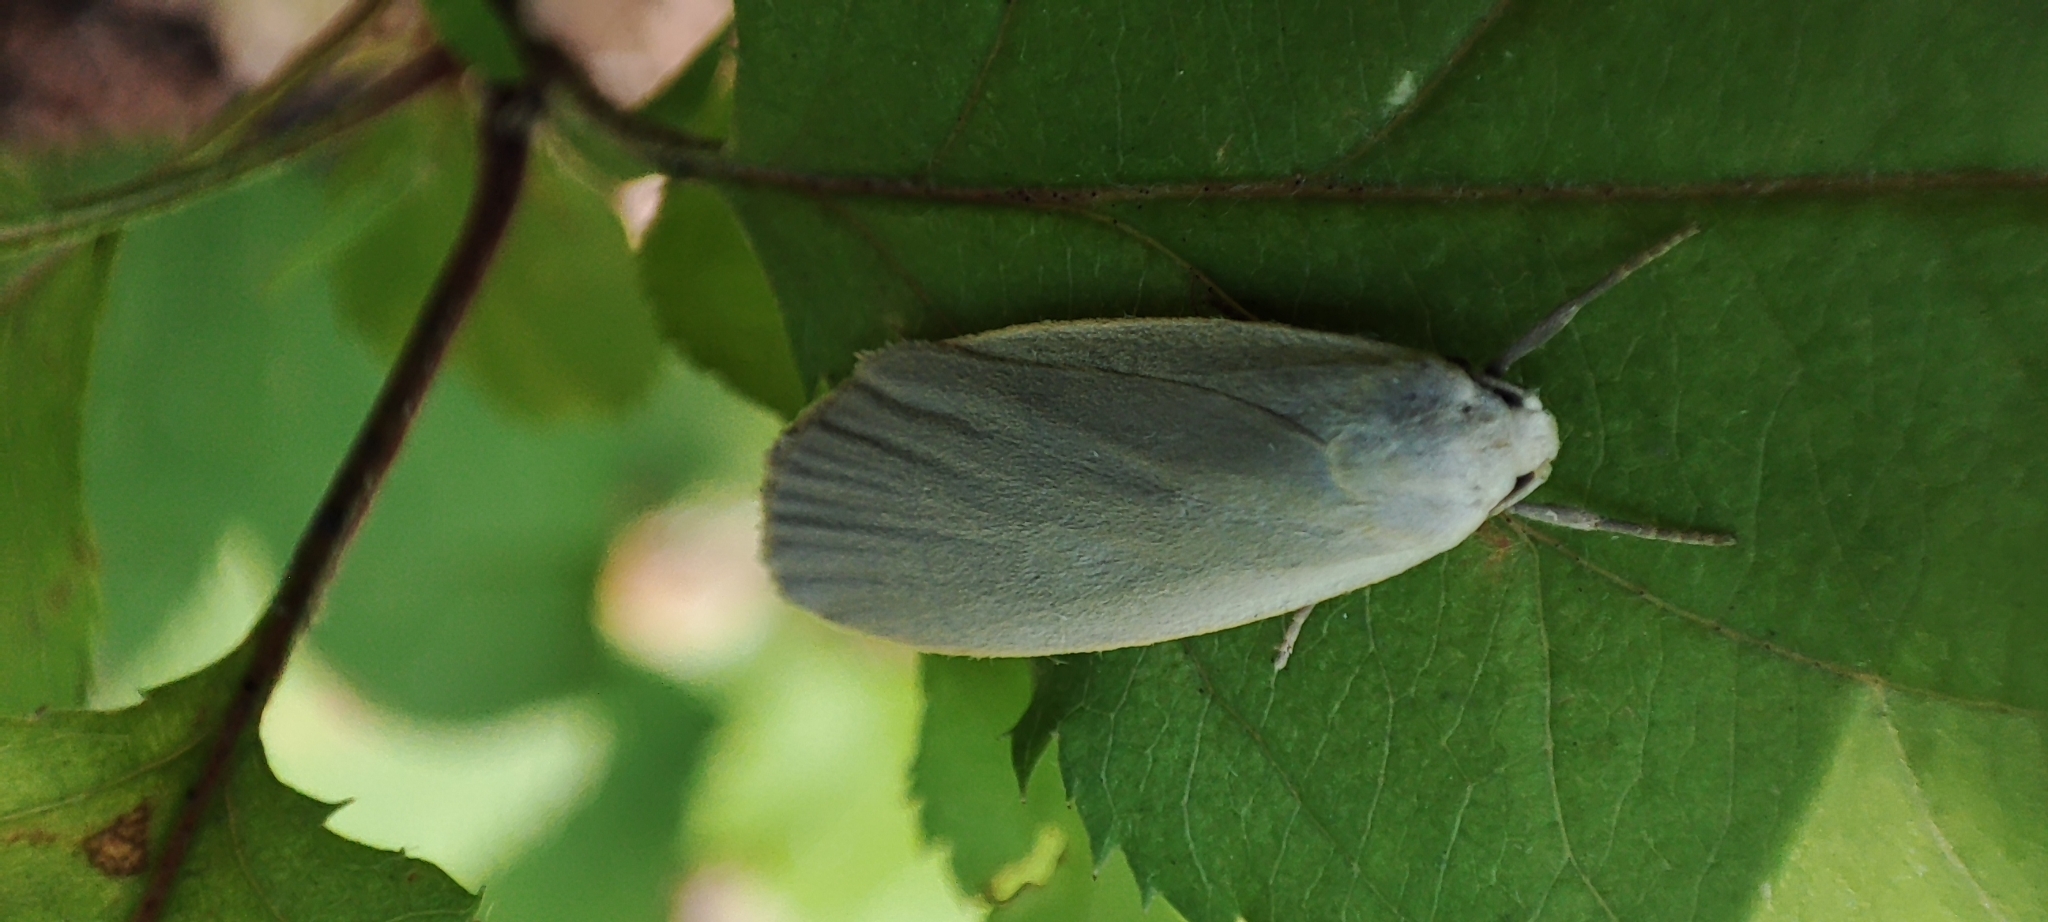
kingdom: Animalia
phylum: Arthropoda
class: Insecta
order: Lepidoptera
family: Erebidae
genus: Collita
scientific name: Collita griseola
